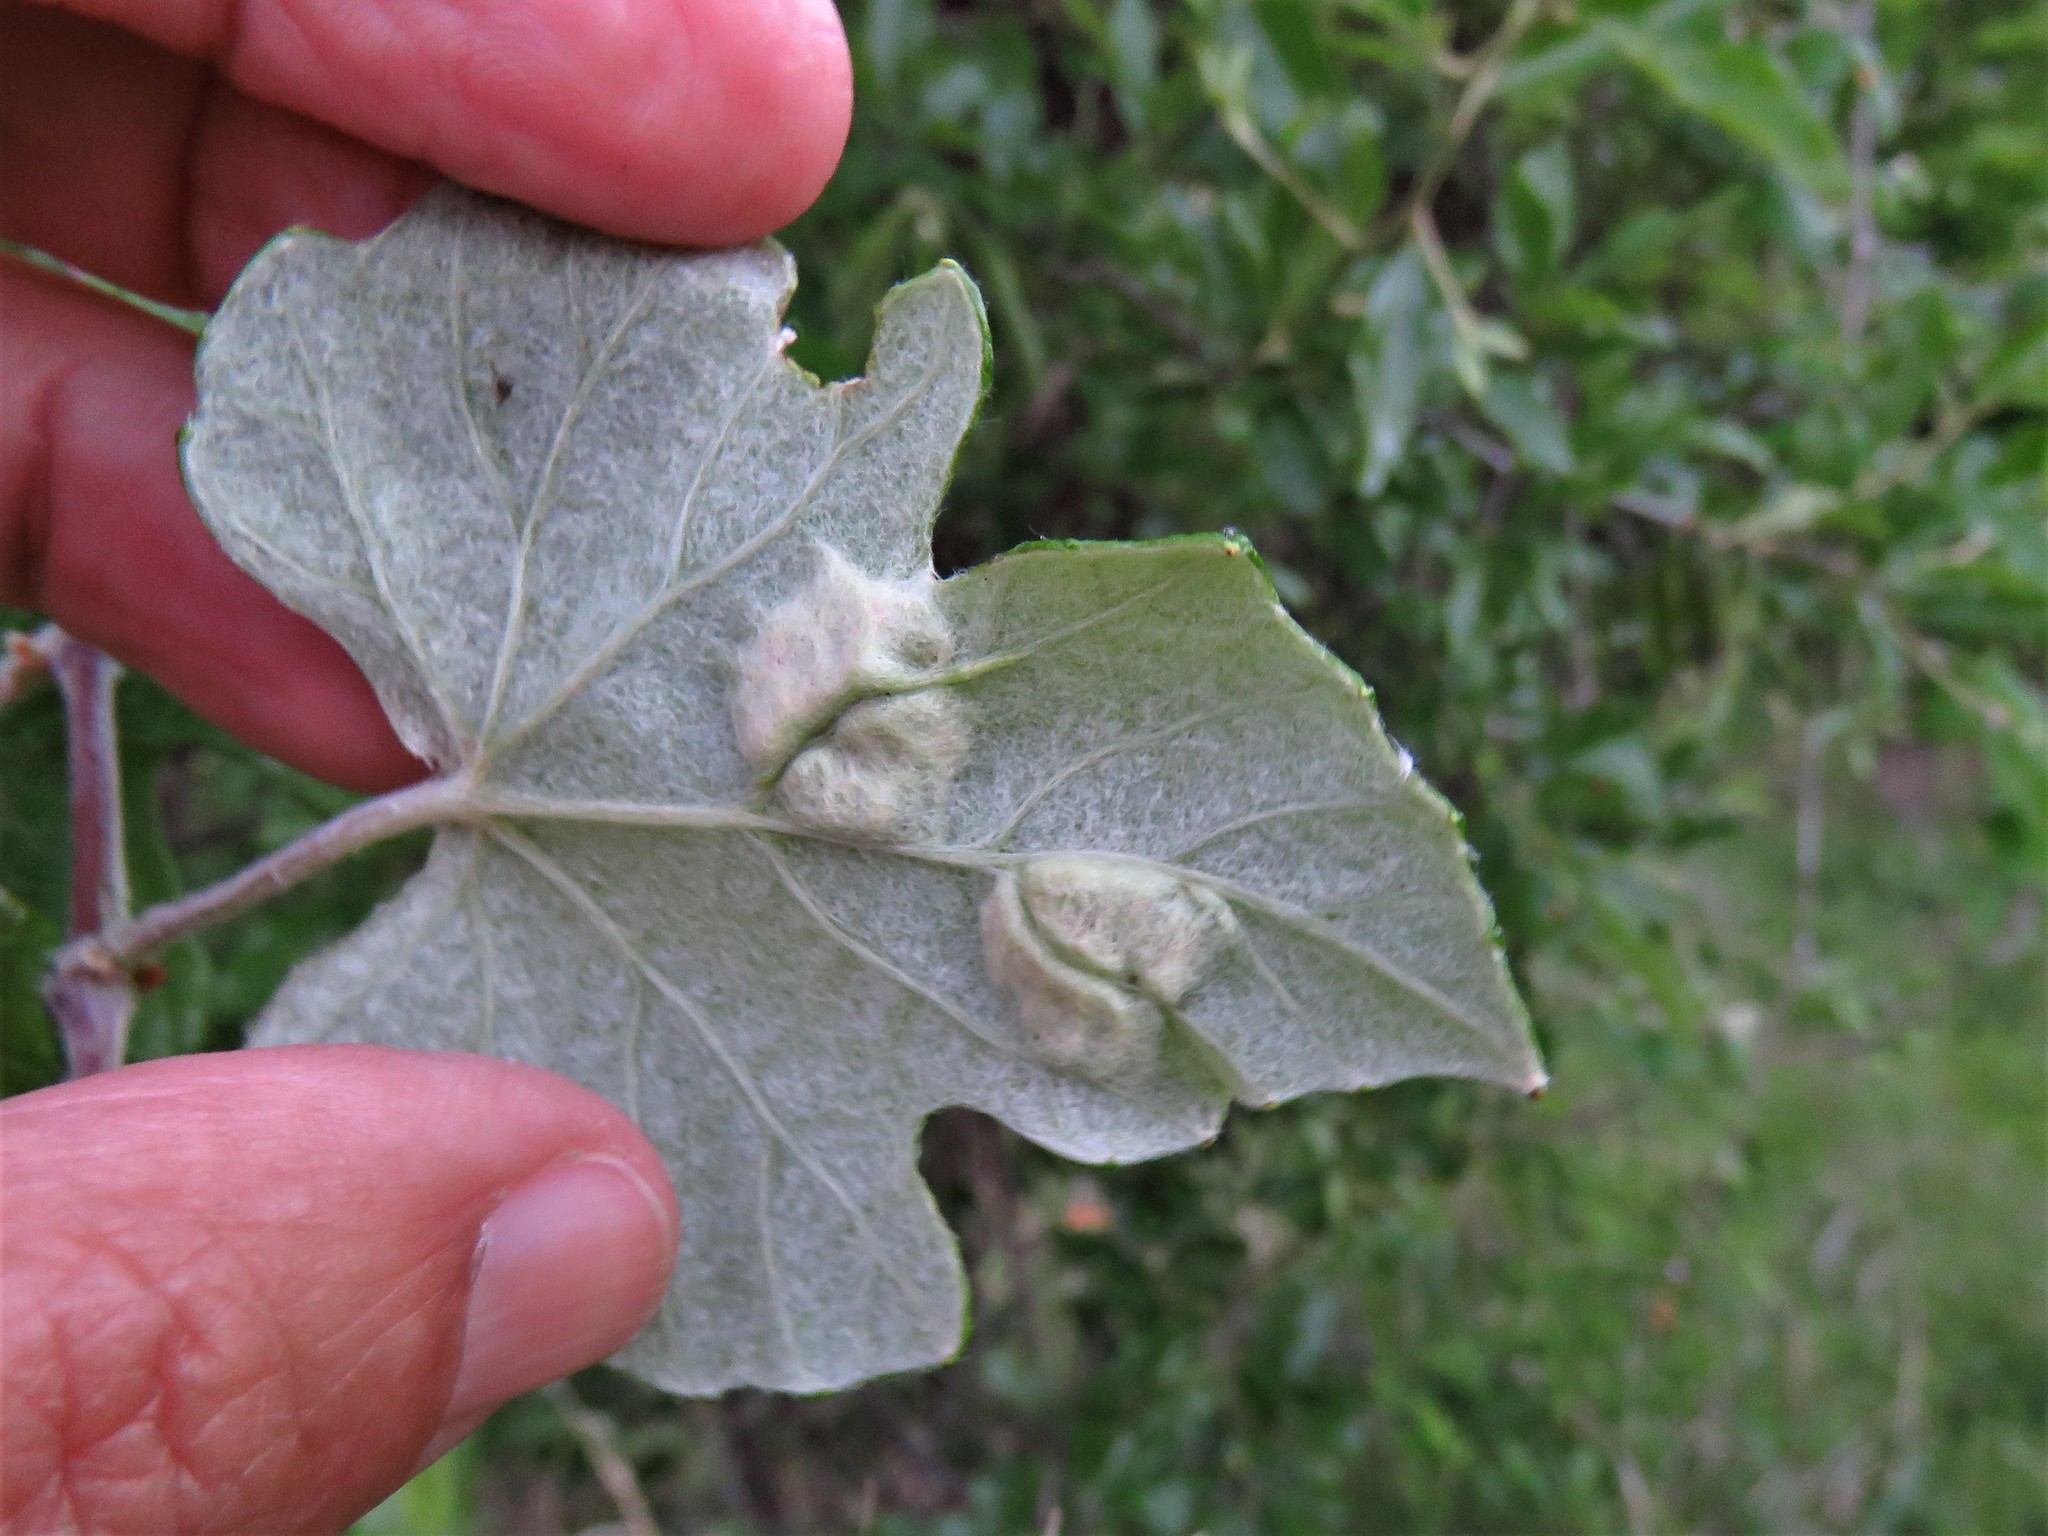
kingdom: Animalia
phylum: Arthropoda
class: Insecta
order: Lepidoptera
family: Heliozelidae
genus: Heliozela
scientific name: Heliozela aesella
